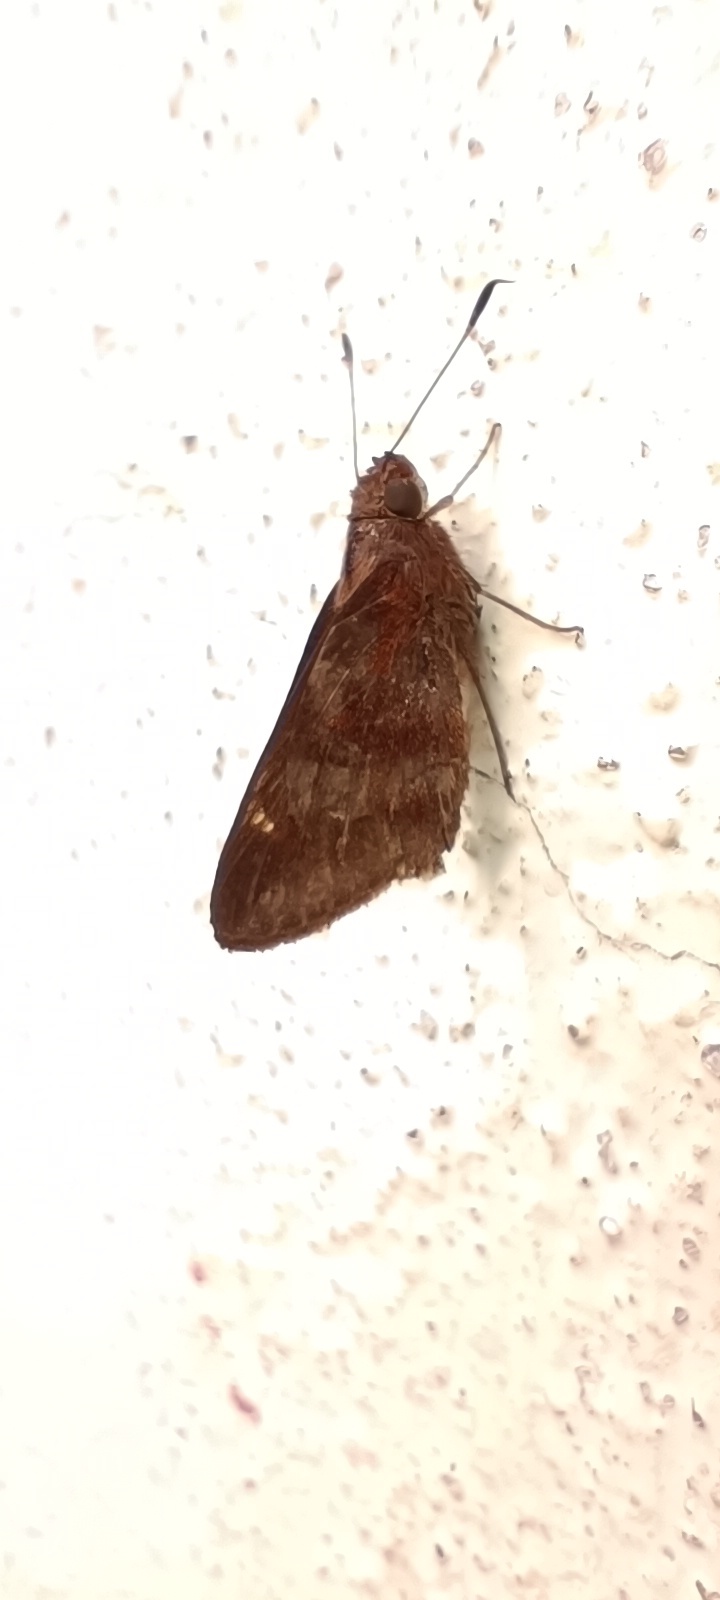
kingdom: Animalia
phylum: Arthropoda
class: Insecta
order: Lepidoptera
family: Hesperiidae
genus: Lerema
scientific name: Lerema
